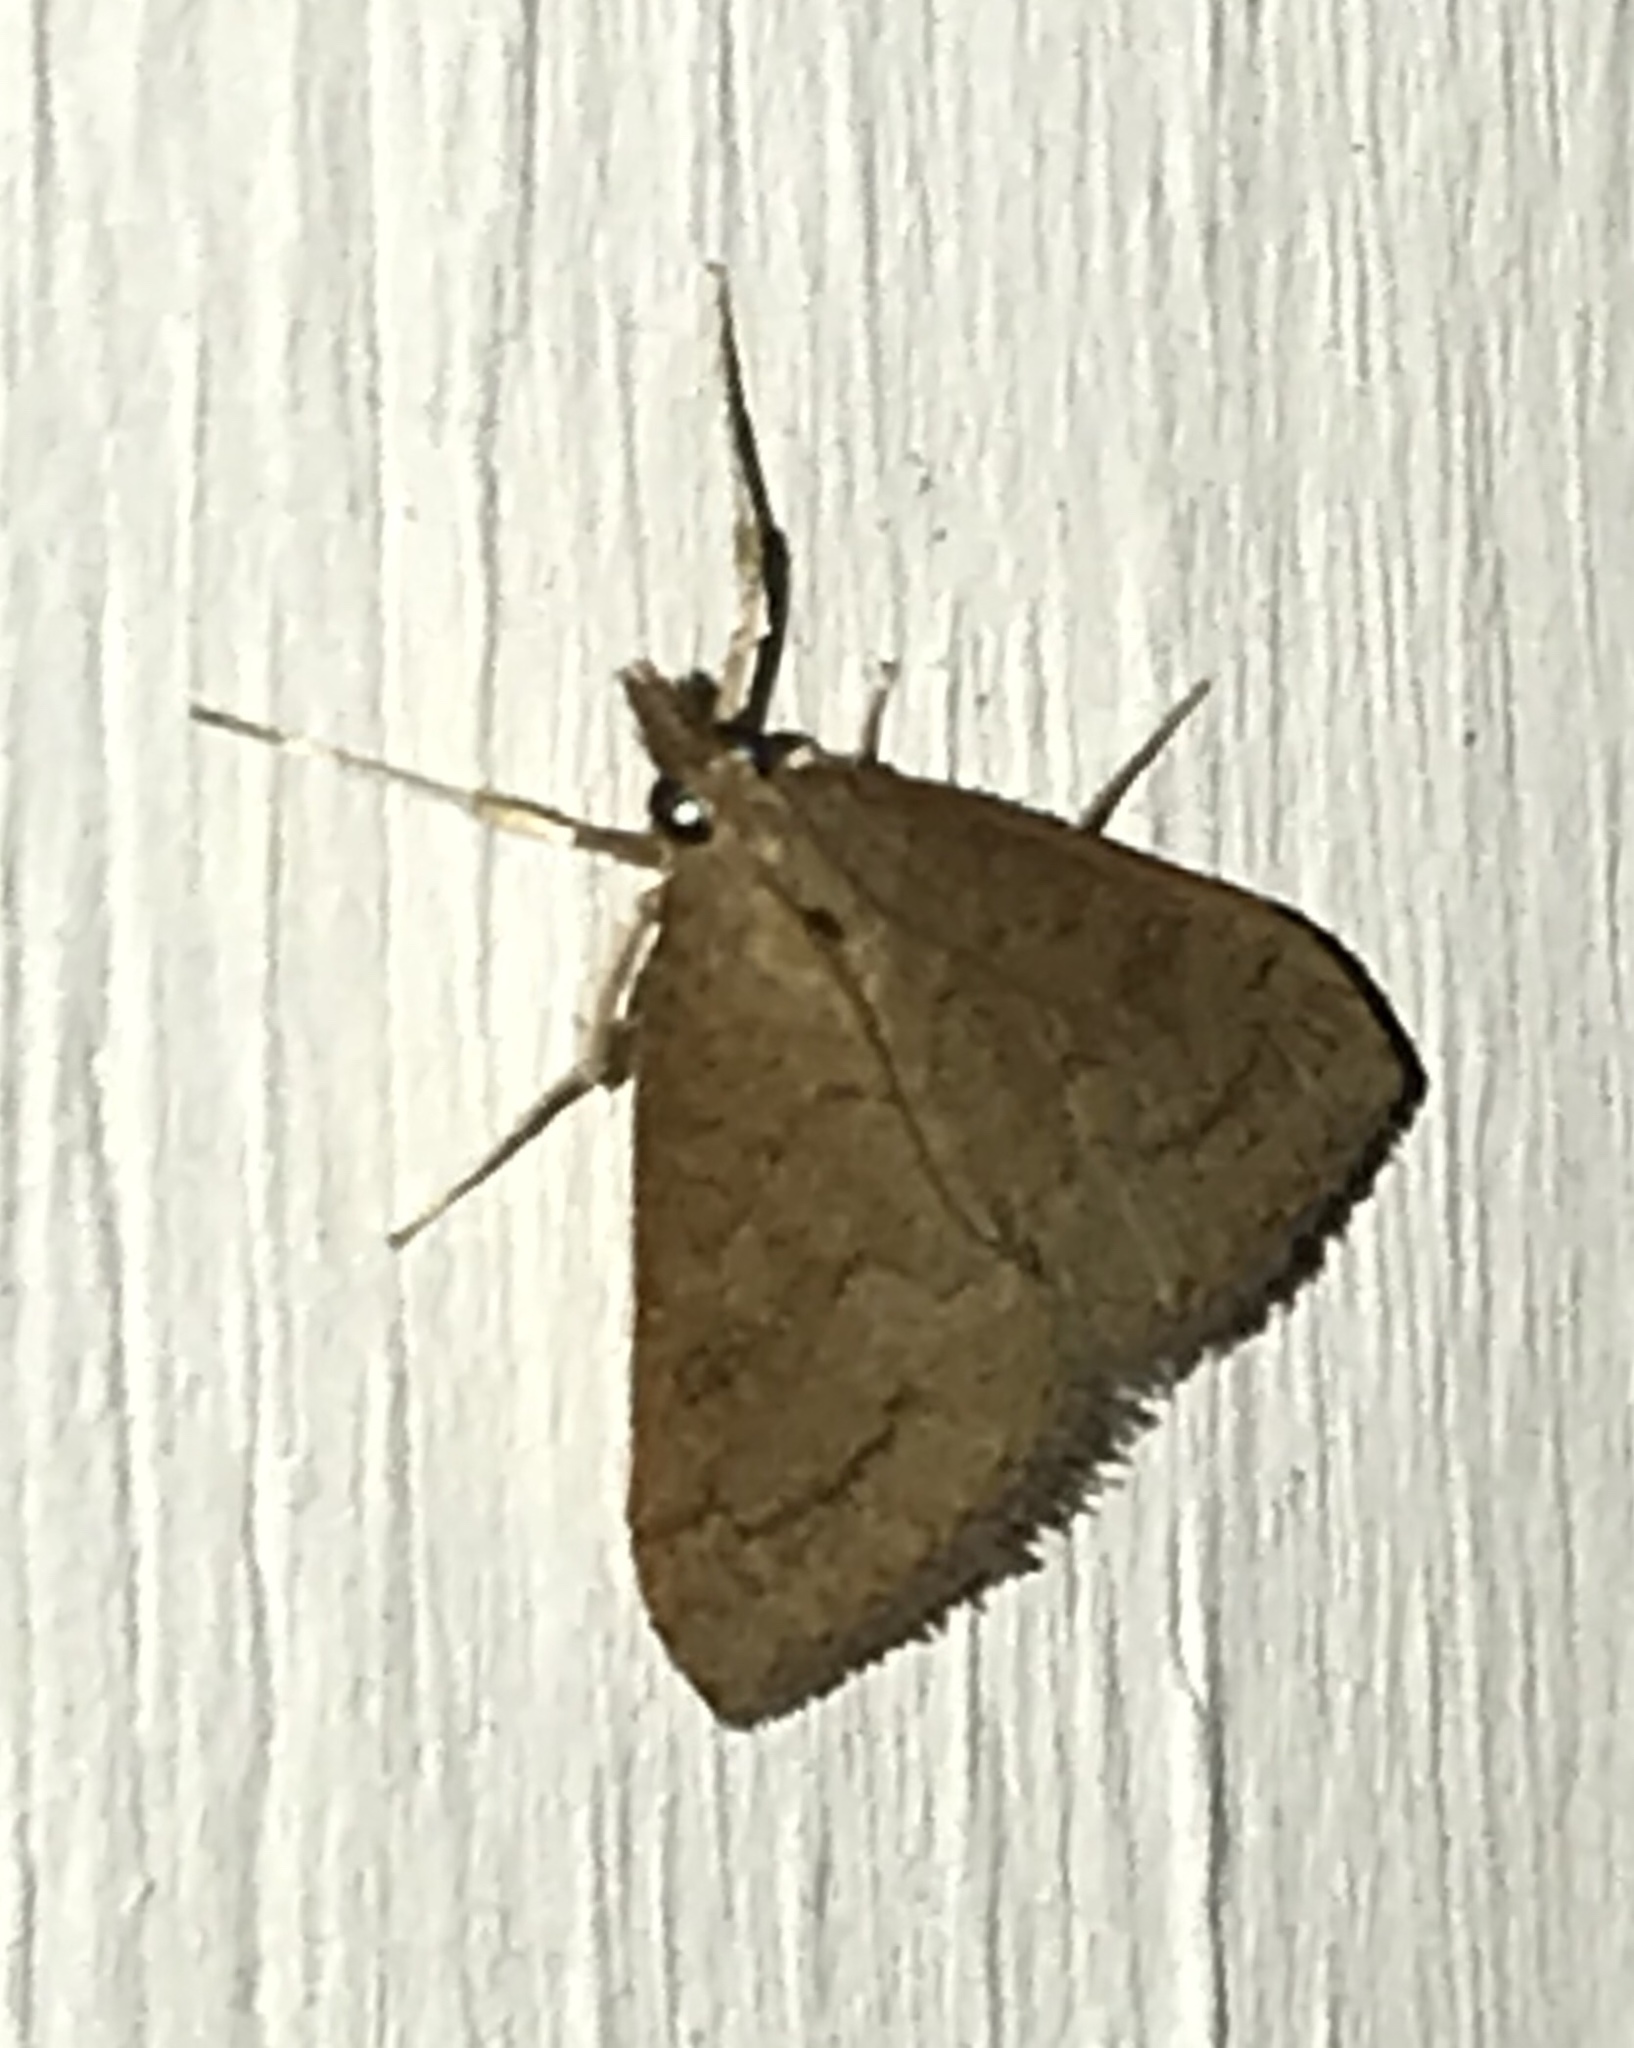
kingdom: Animalia
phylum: Arthropoda
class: Insecta
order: Lepidoptera
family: Crambidae
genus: Udea
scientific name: Udea rubigalis
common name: Celery leaftier moth
